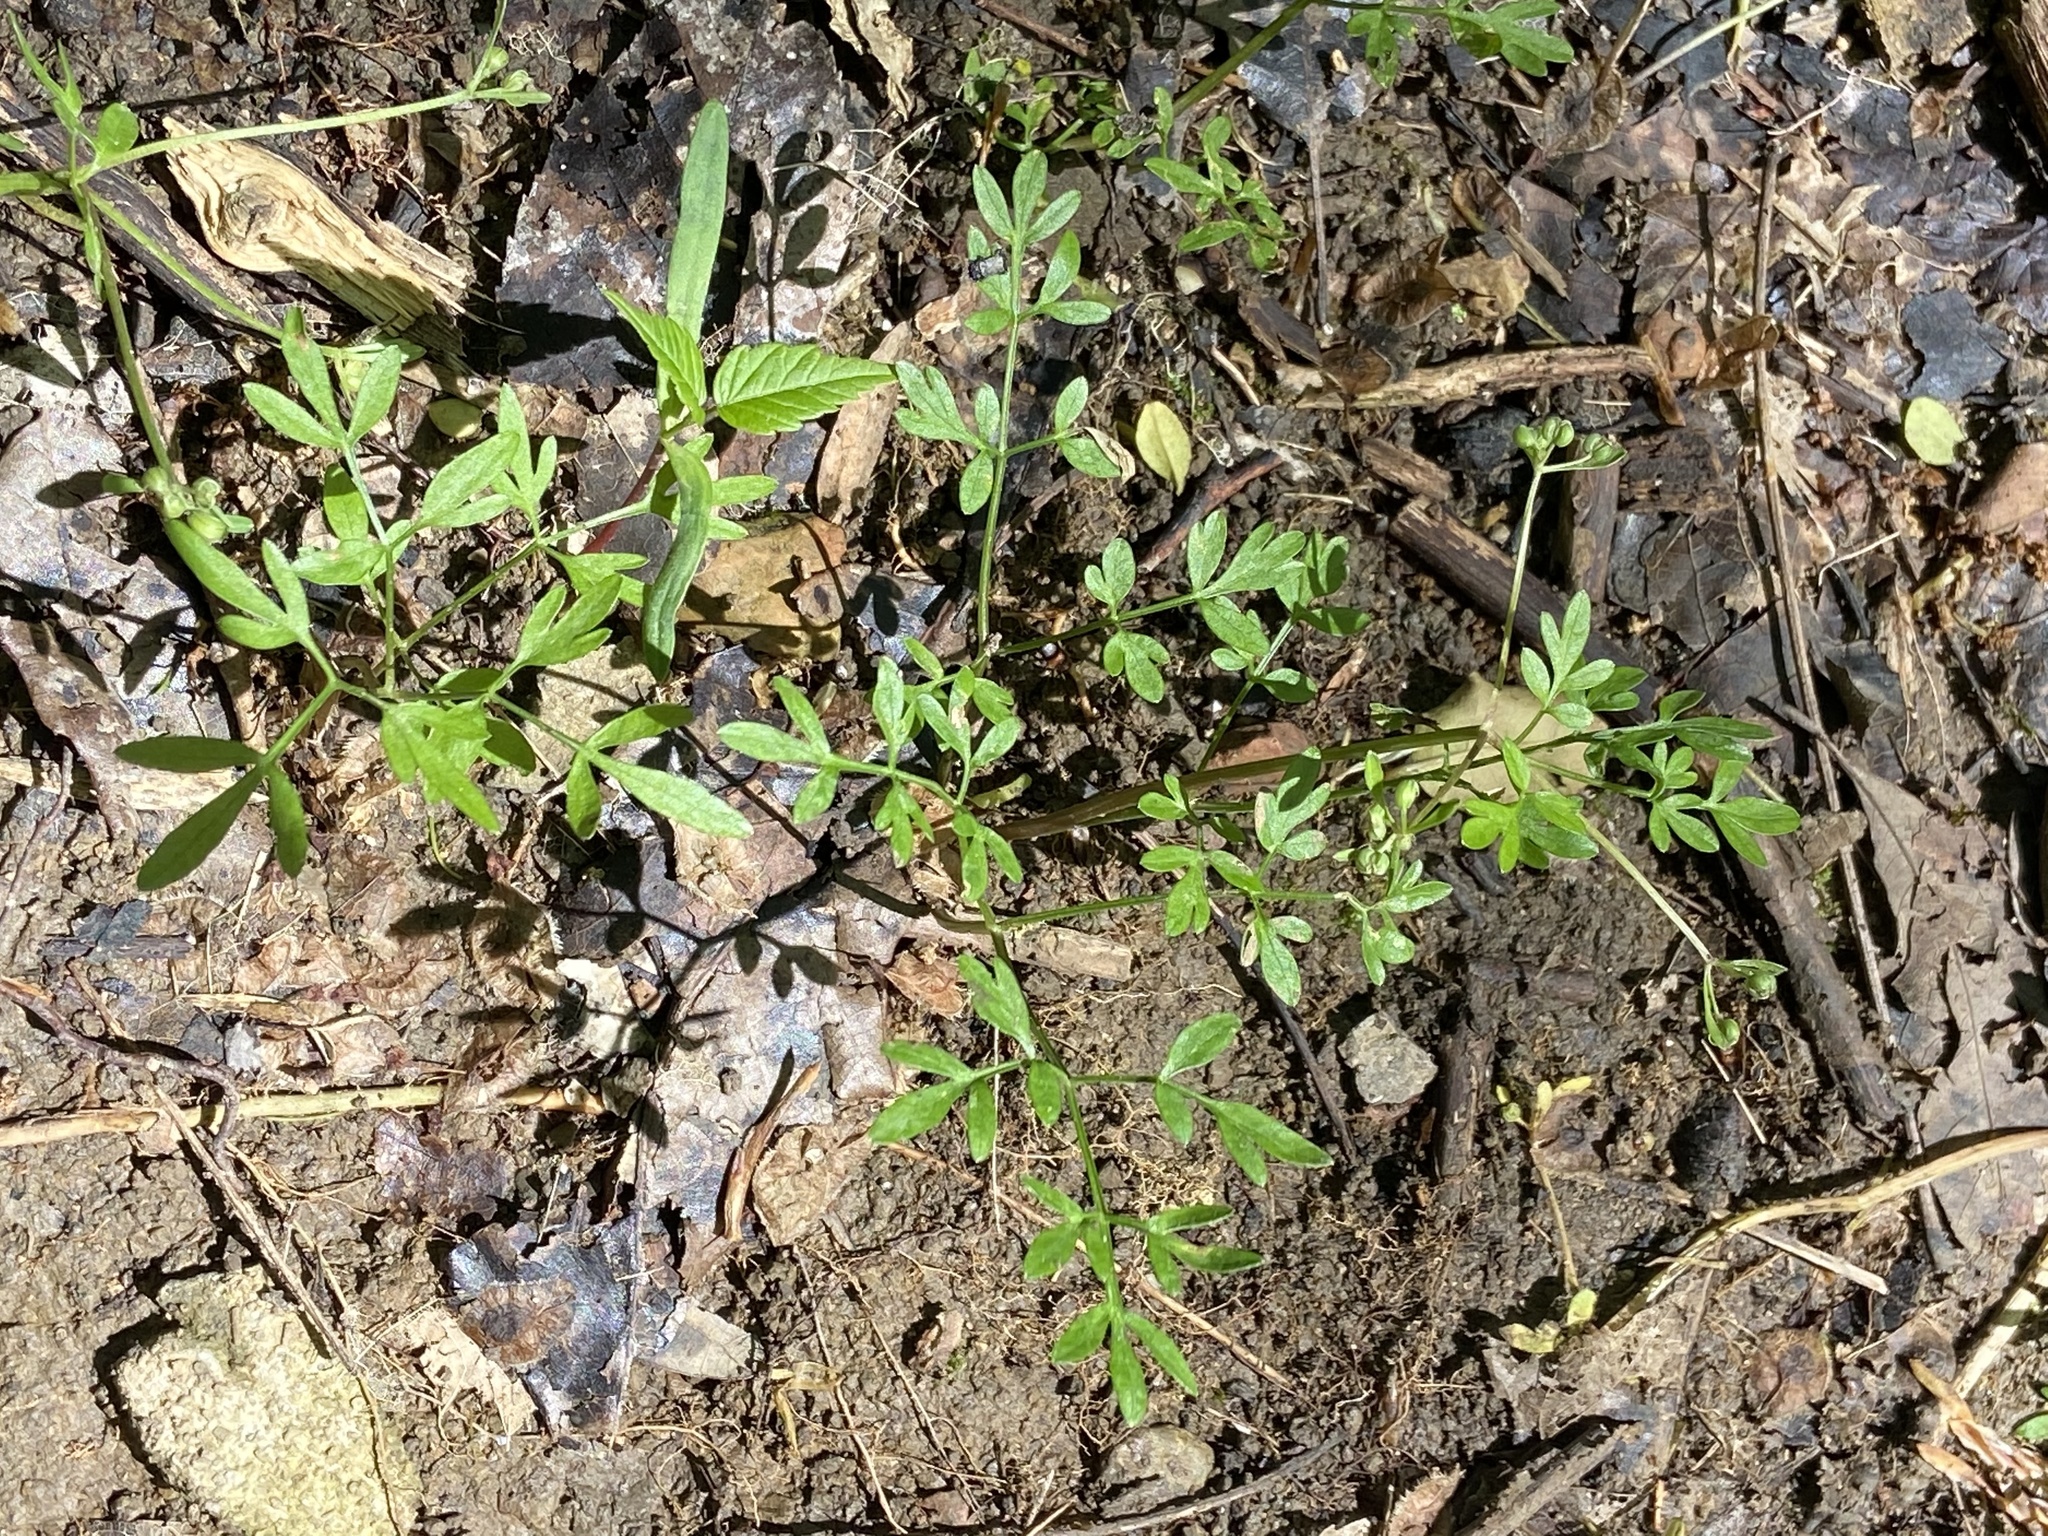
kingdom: Plantae
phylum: Tracheophyta
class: Magnoliopsida
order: Apiales
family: Apiaceae
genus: Erigenia
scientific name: Erigenia bulbosa
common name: Pepper-and-salt
